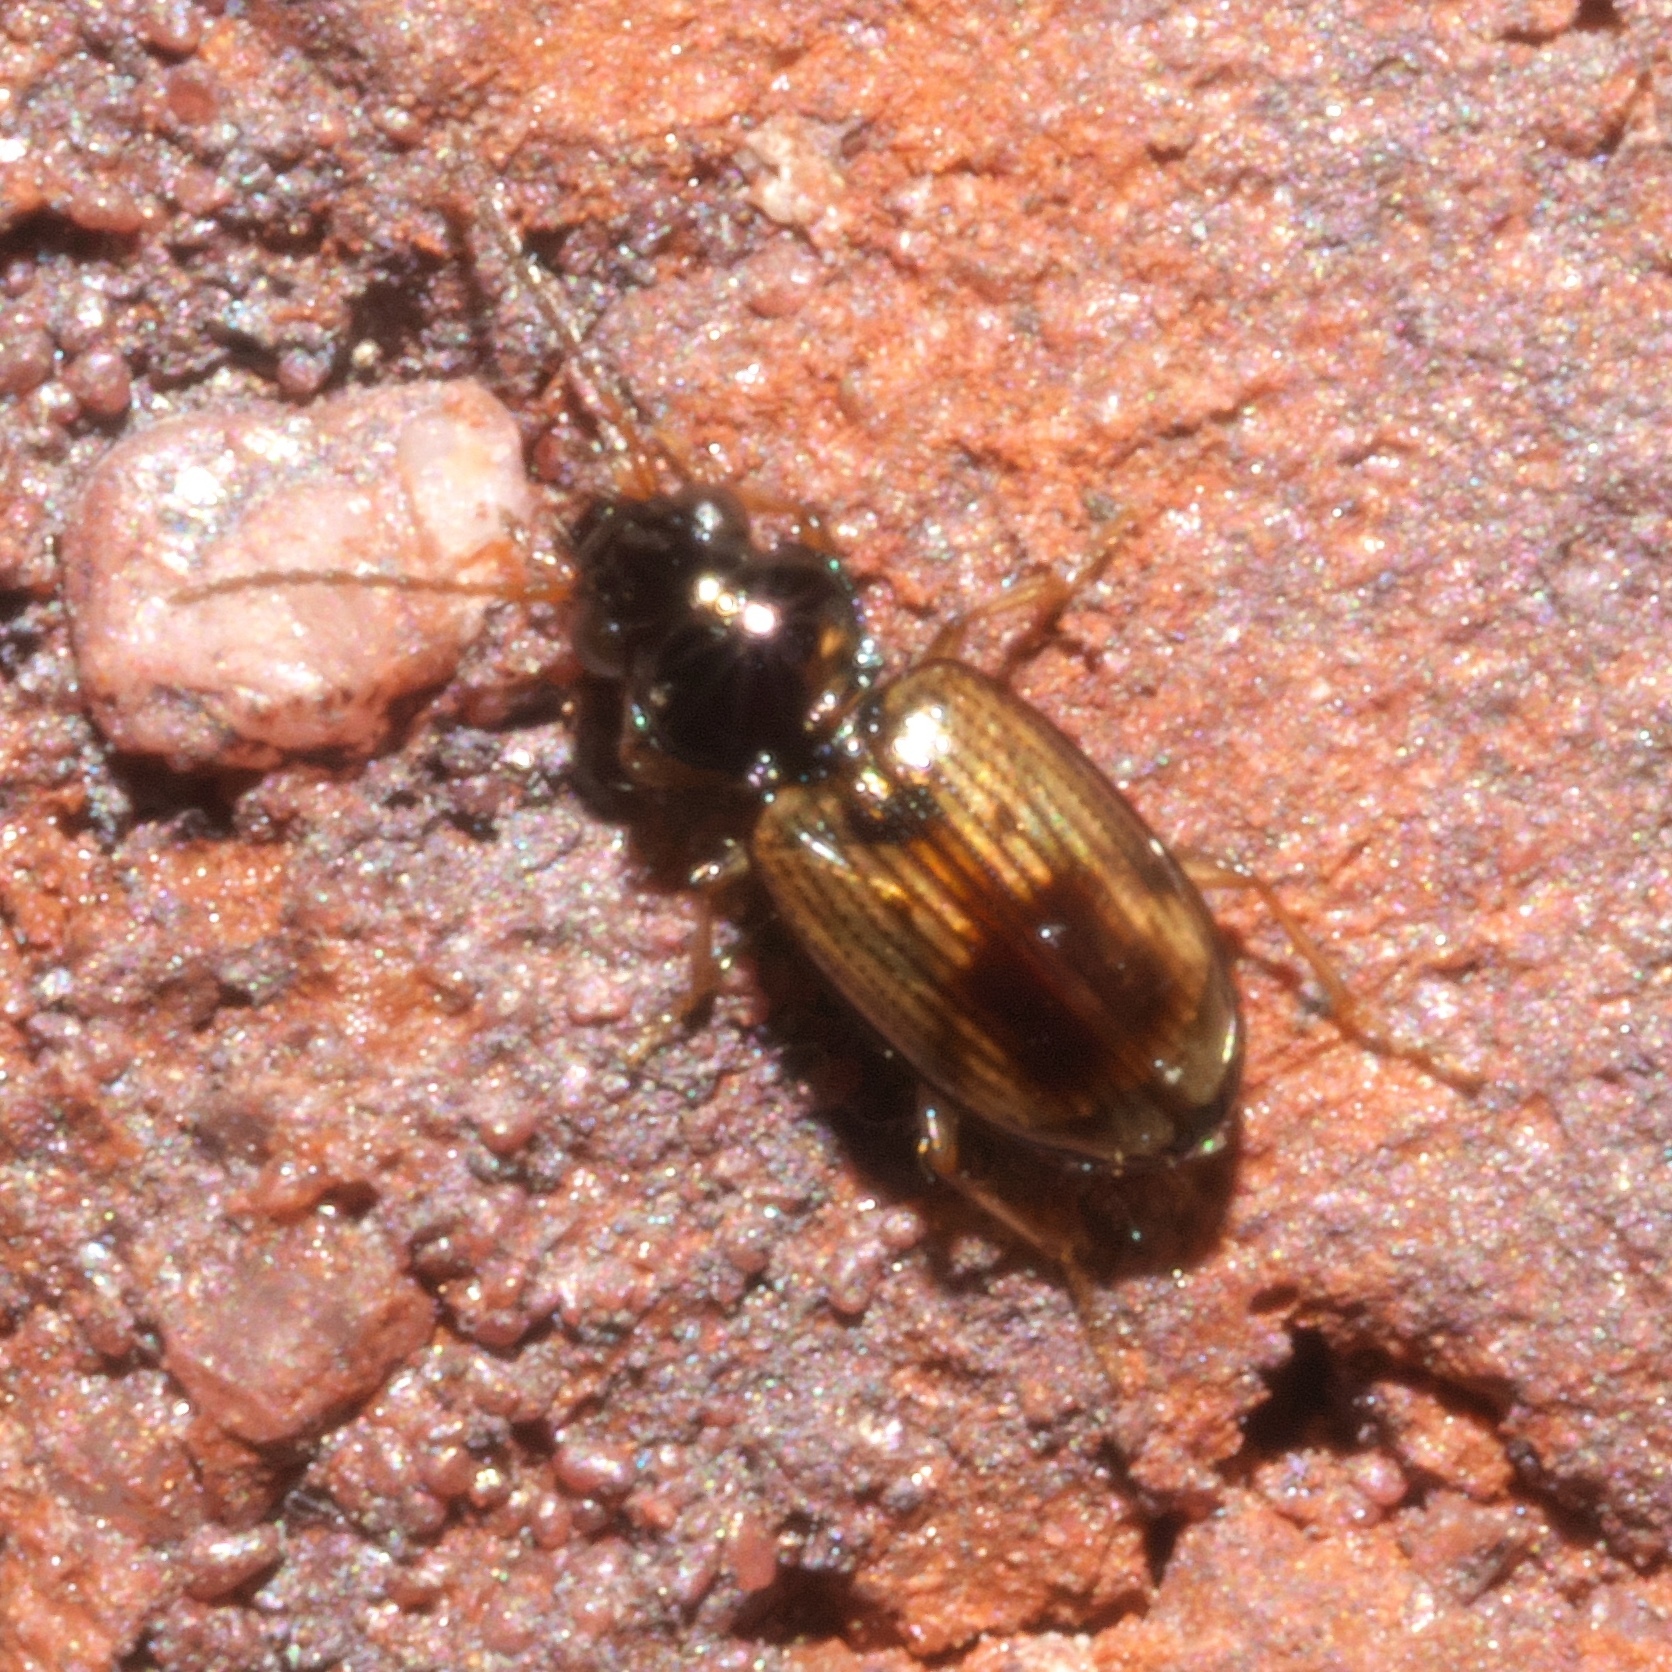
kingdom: Animalia
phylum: Arthropoda
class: Insecta
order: Coleoptera
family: Carabidae
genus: Bembidion
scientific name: Bembidion impotens
